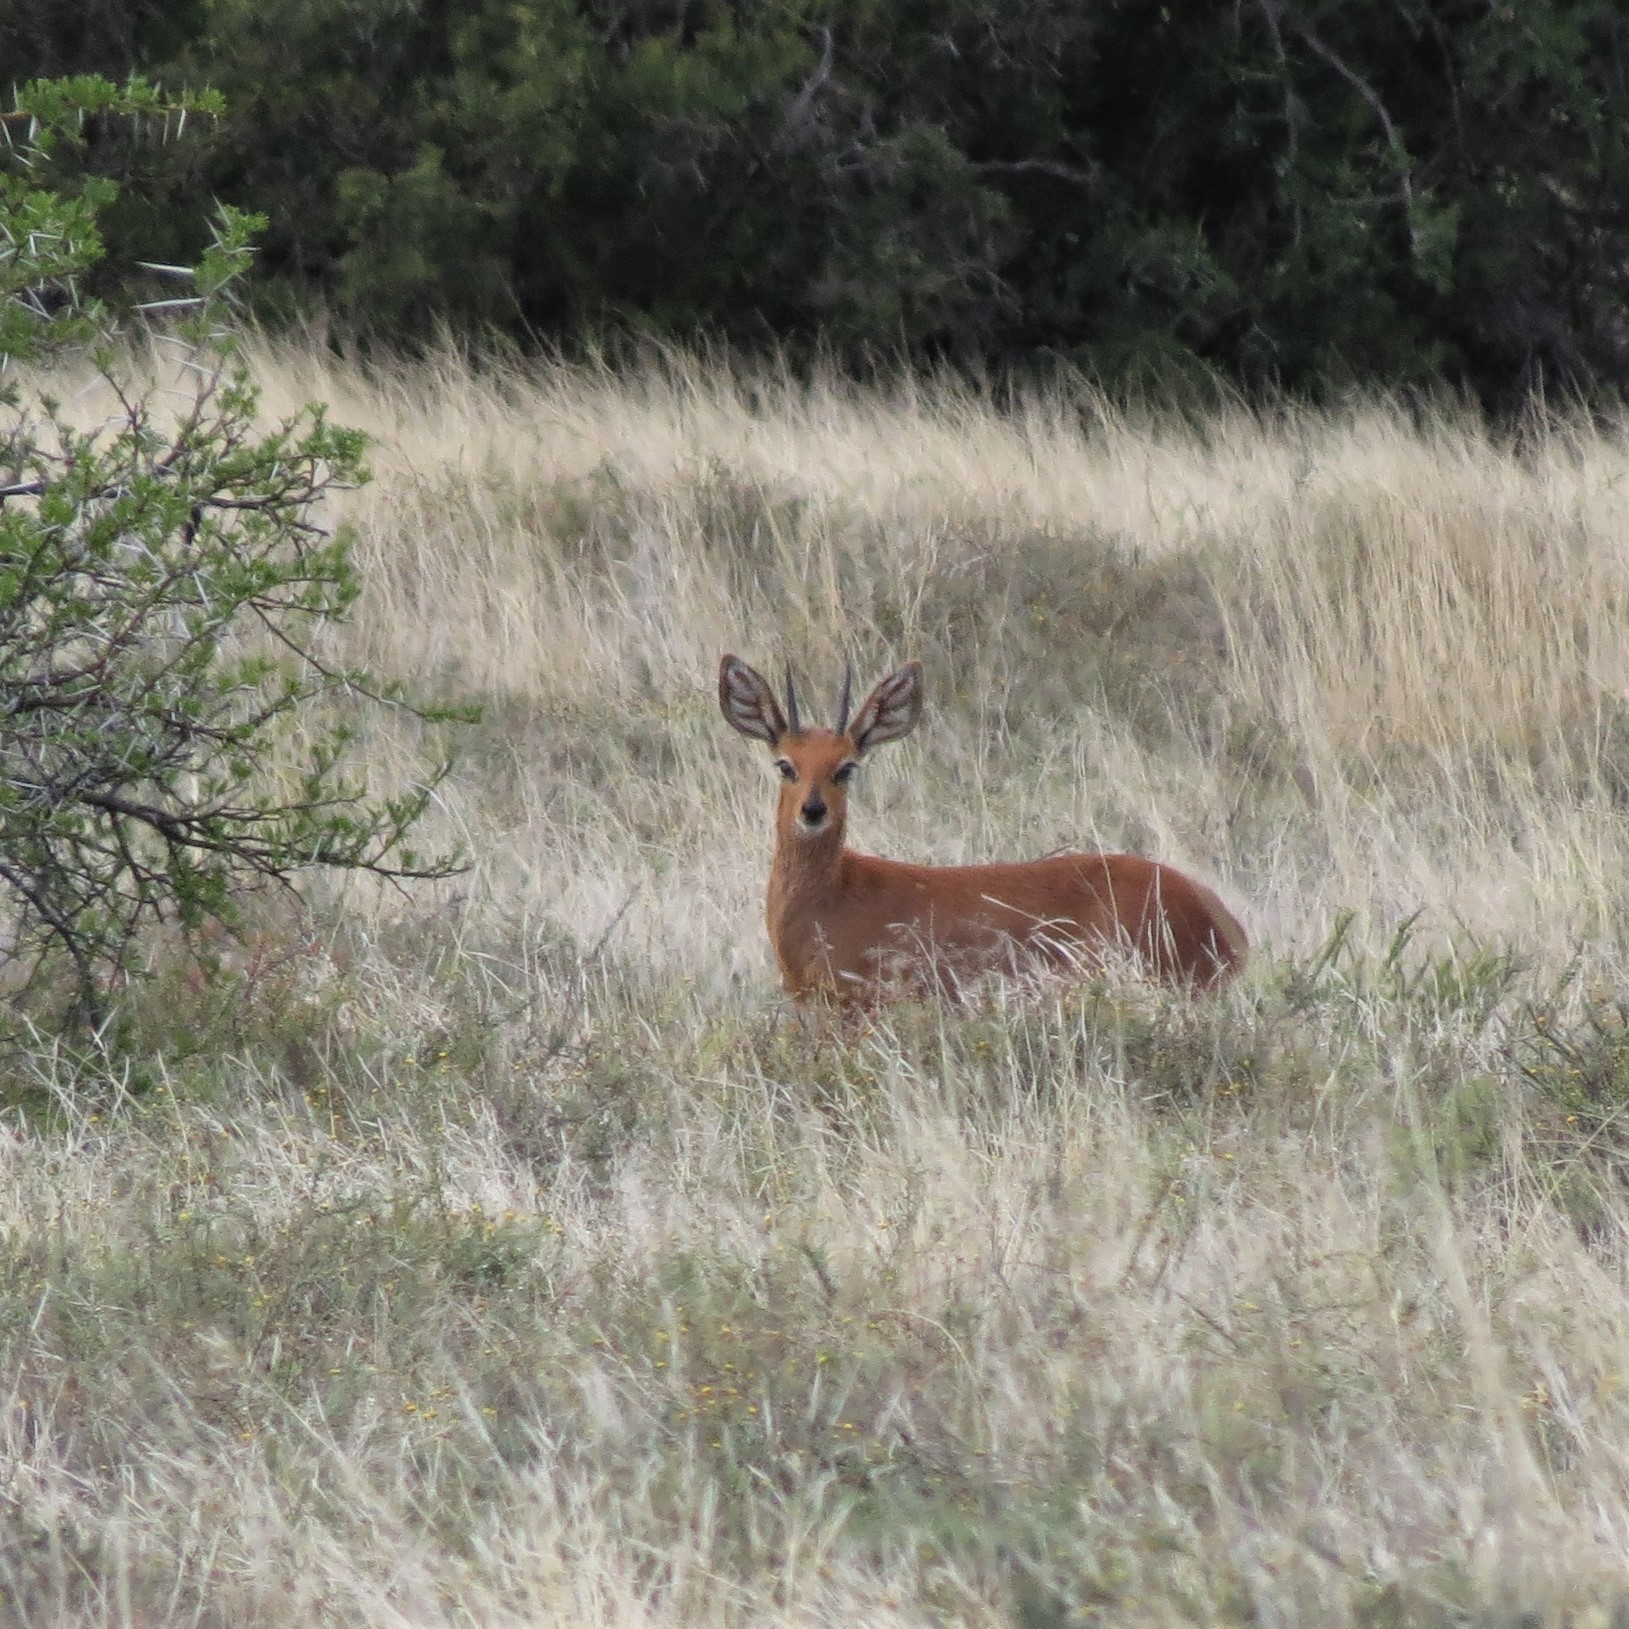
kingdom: Animalia
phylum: Chordata
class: Mammalia
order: Artiodactyla
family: Bovidae
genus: Raphicerus
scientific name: Raphicerus campestris
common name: Steenbok
